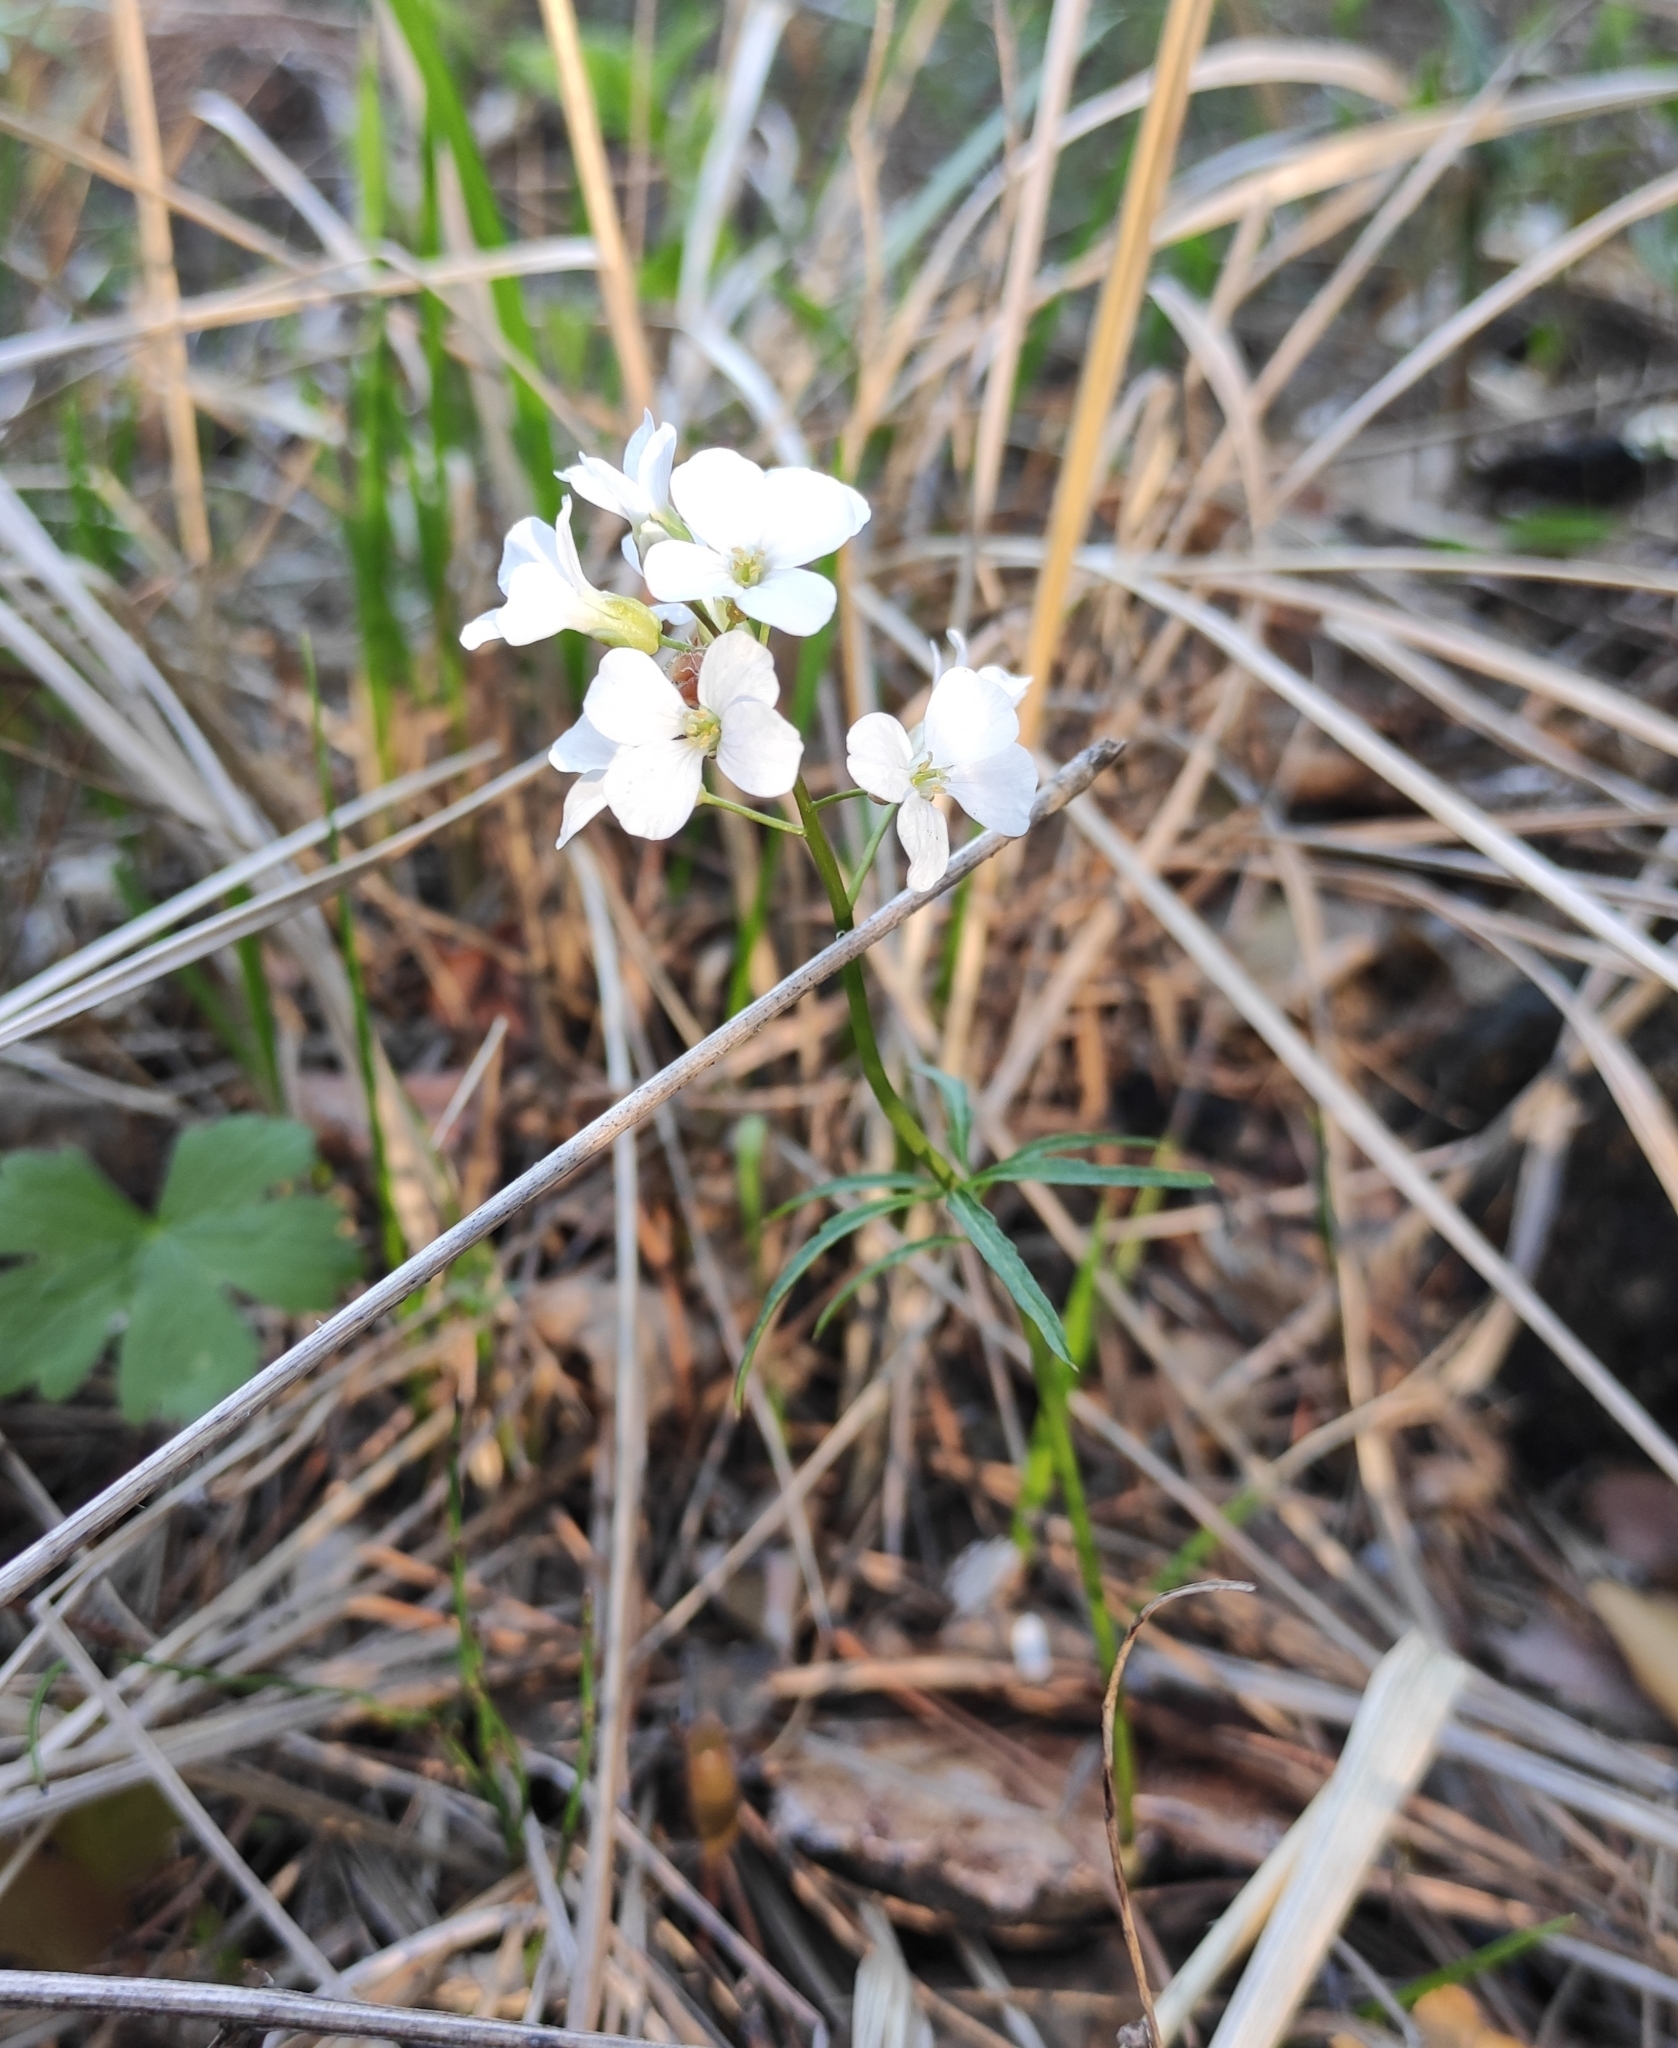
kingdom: Plantae
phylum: Tracheophyta
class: Magnoliopsida
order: Brassicales
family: Brassicaceae
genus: Cardamine
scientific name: Cardamine trifida
